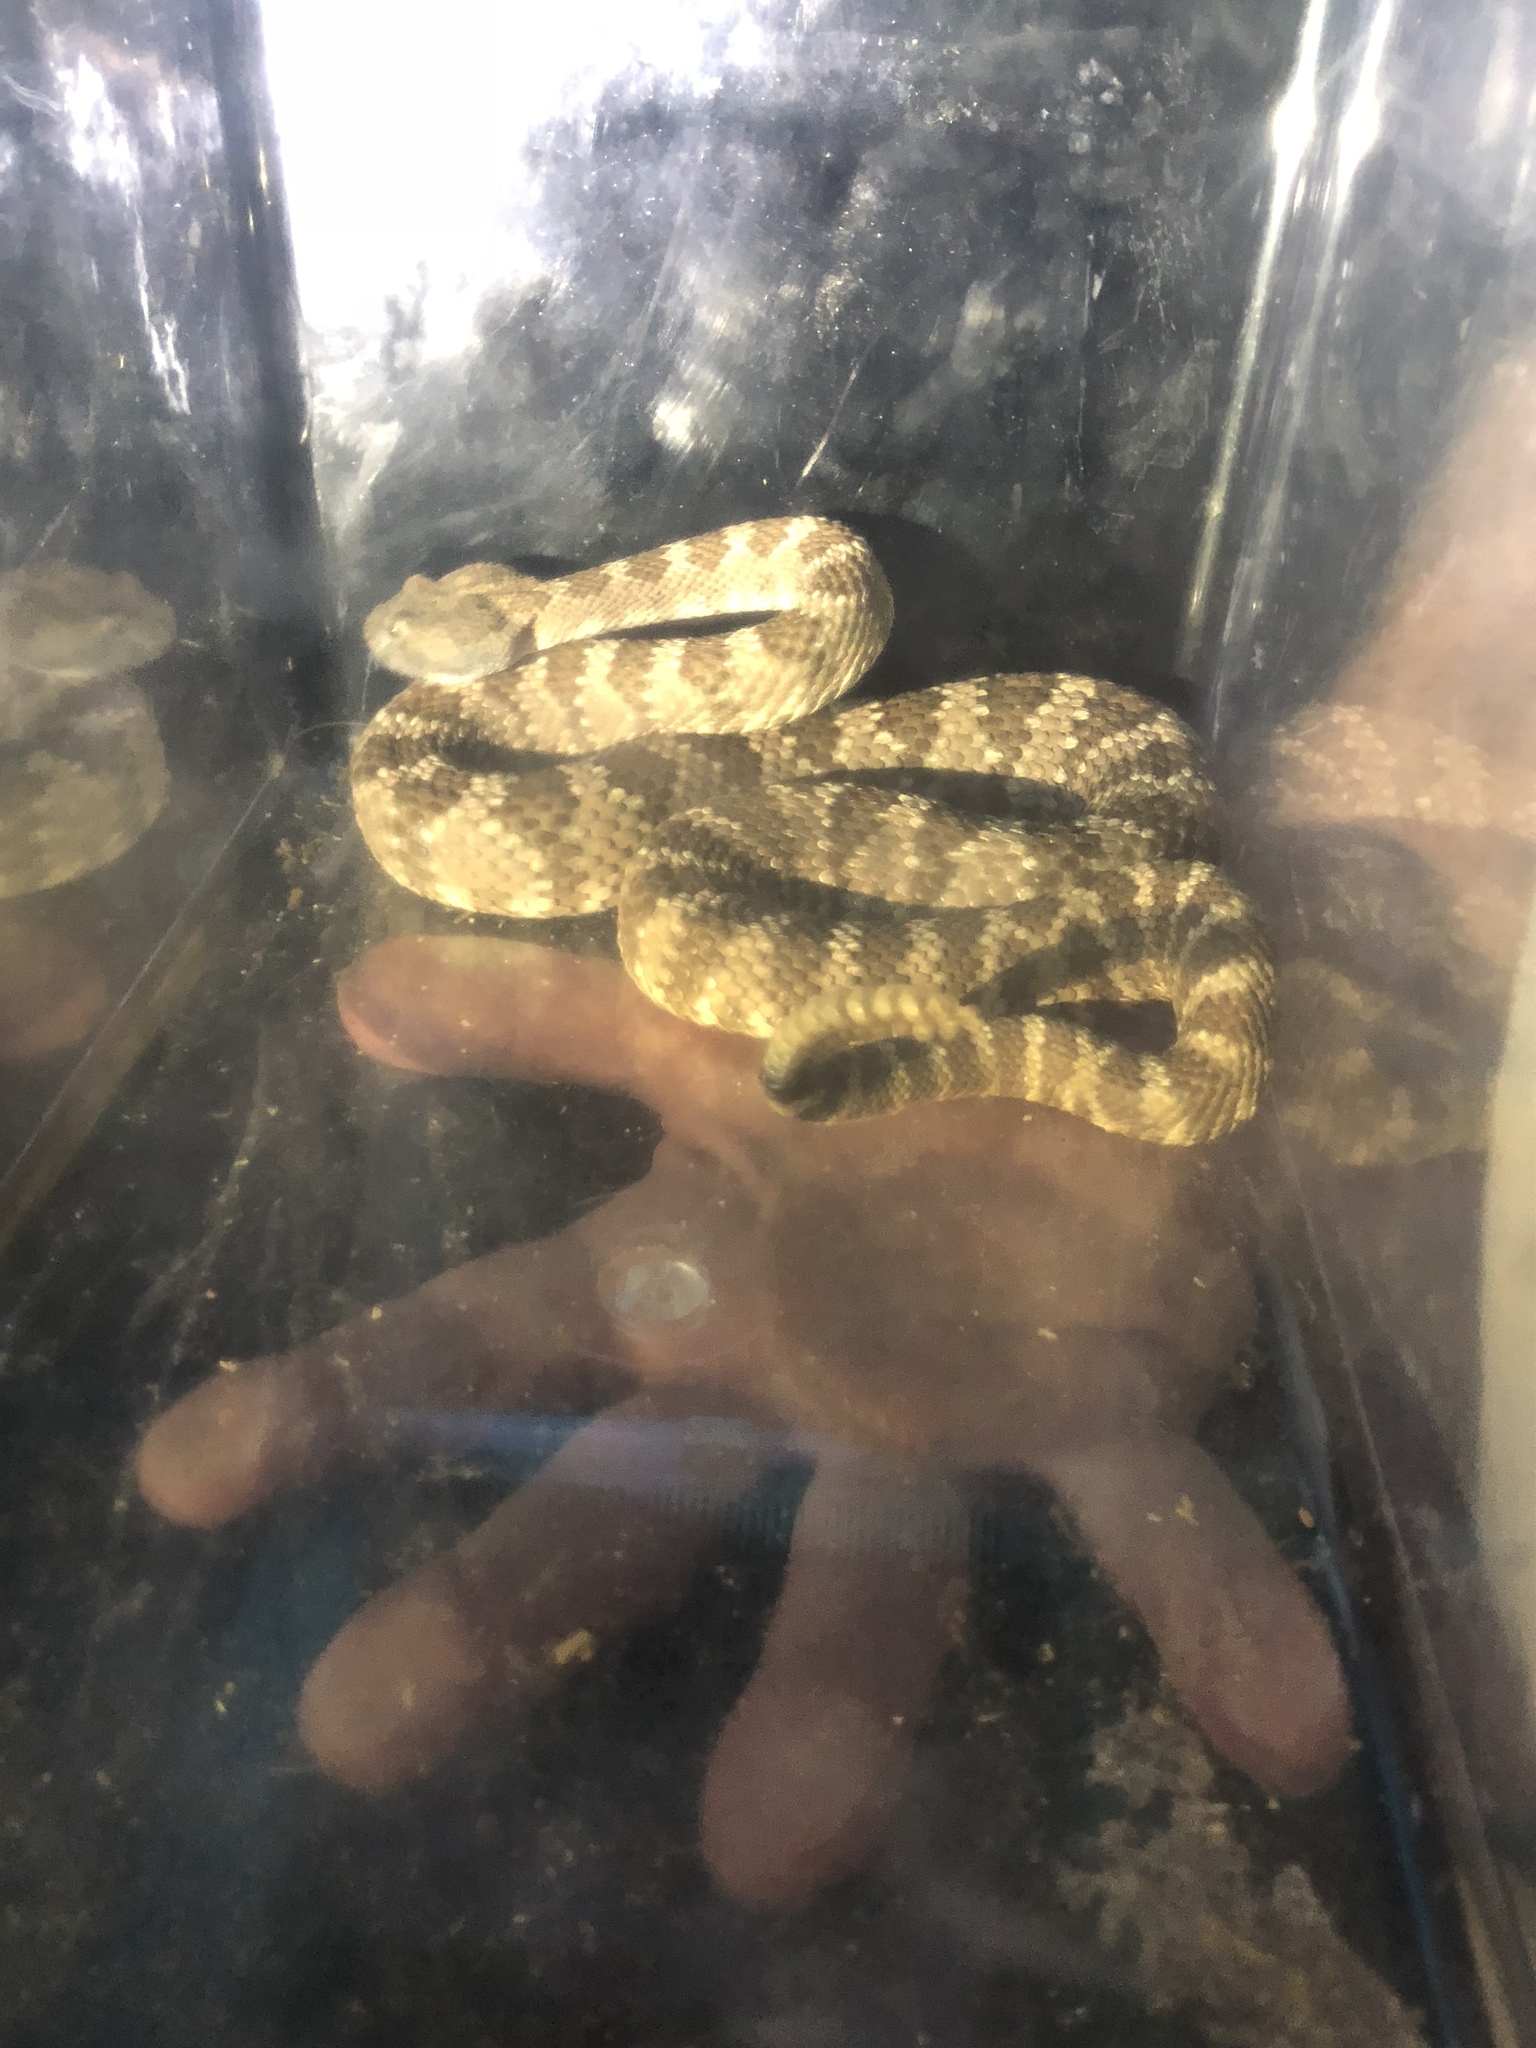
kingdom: Animalia
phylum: Chordata
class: Squamata
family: Viperidae
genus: Crotalus
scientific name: Crotalus stephensi
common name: Panamint rattlesnake
